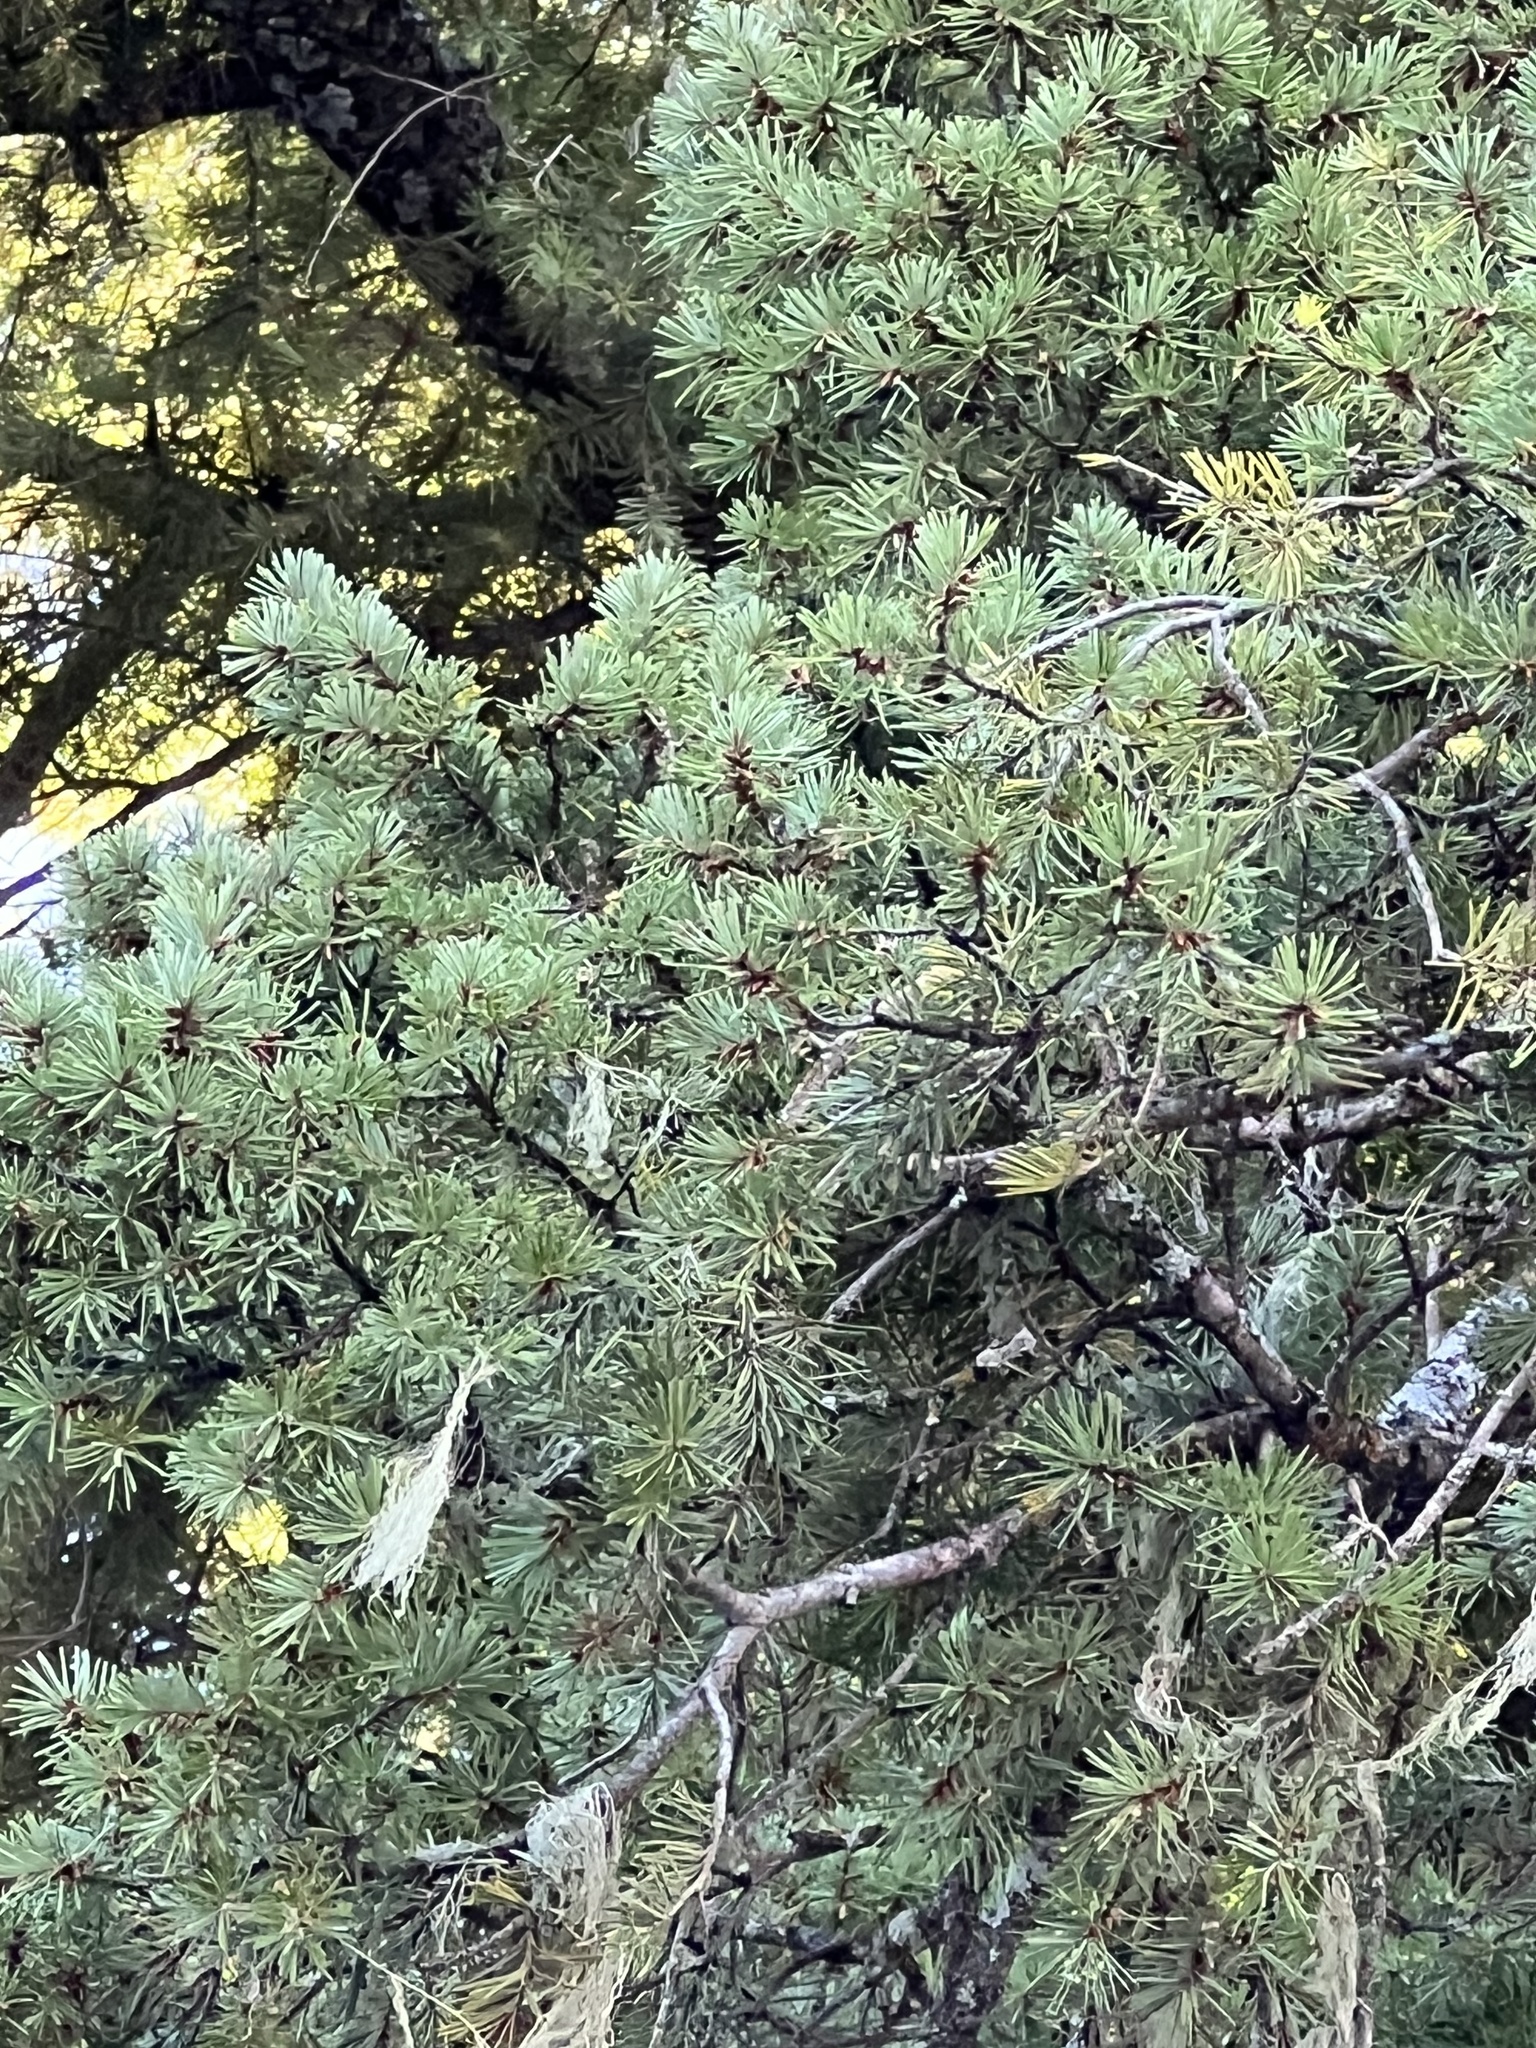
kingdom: Plantae
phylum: Tracheophyta
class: Pinopsida
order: Pinales
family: Pinaceae
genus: Pseudotsuga
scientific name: Pseudotsuga menziesii
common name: Douglas fir
